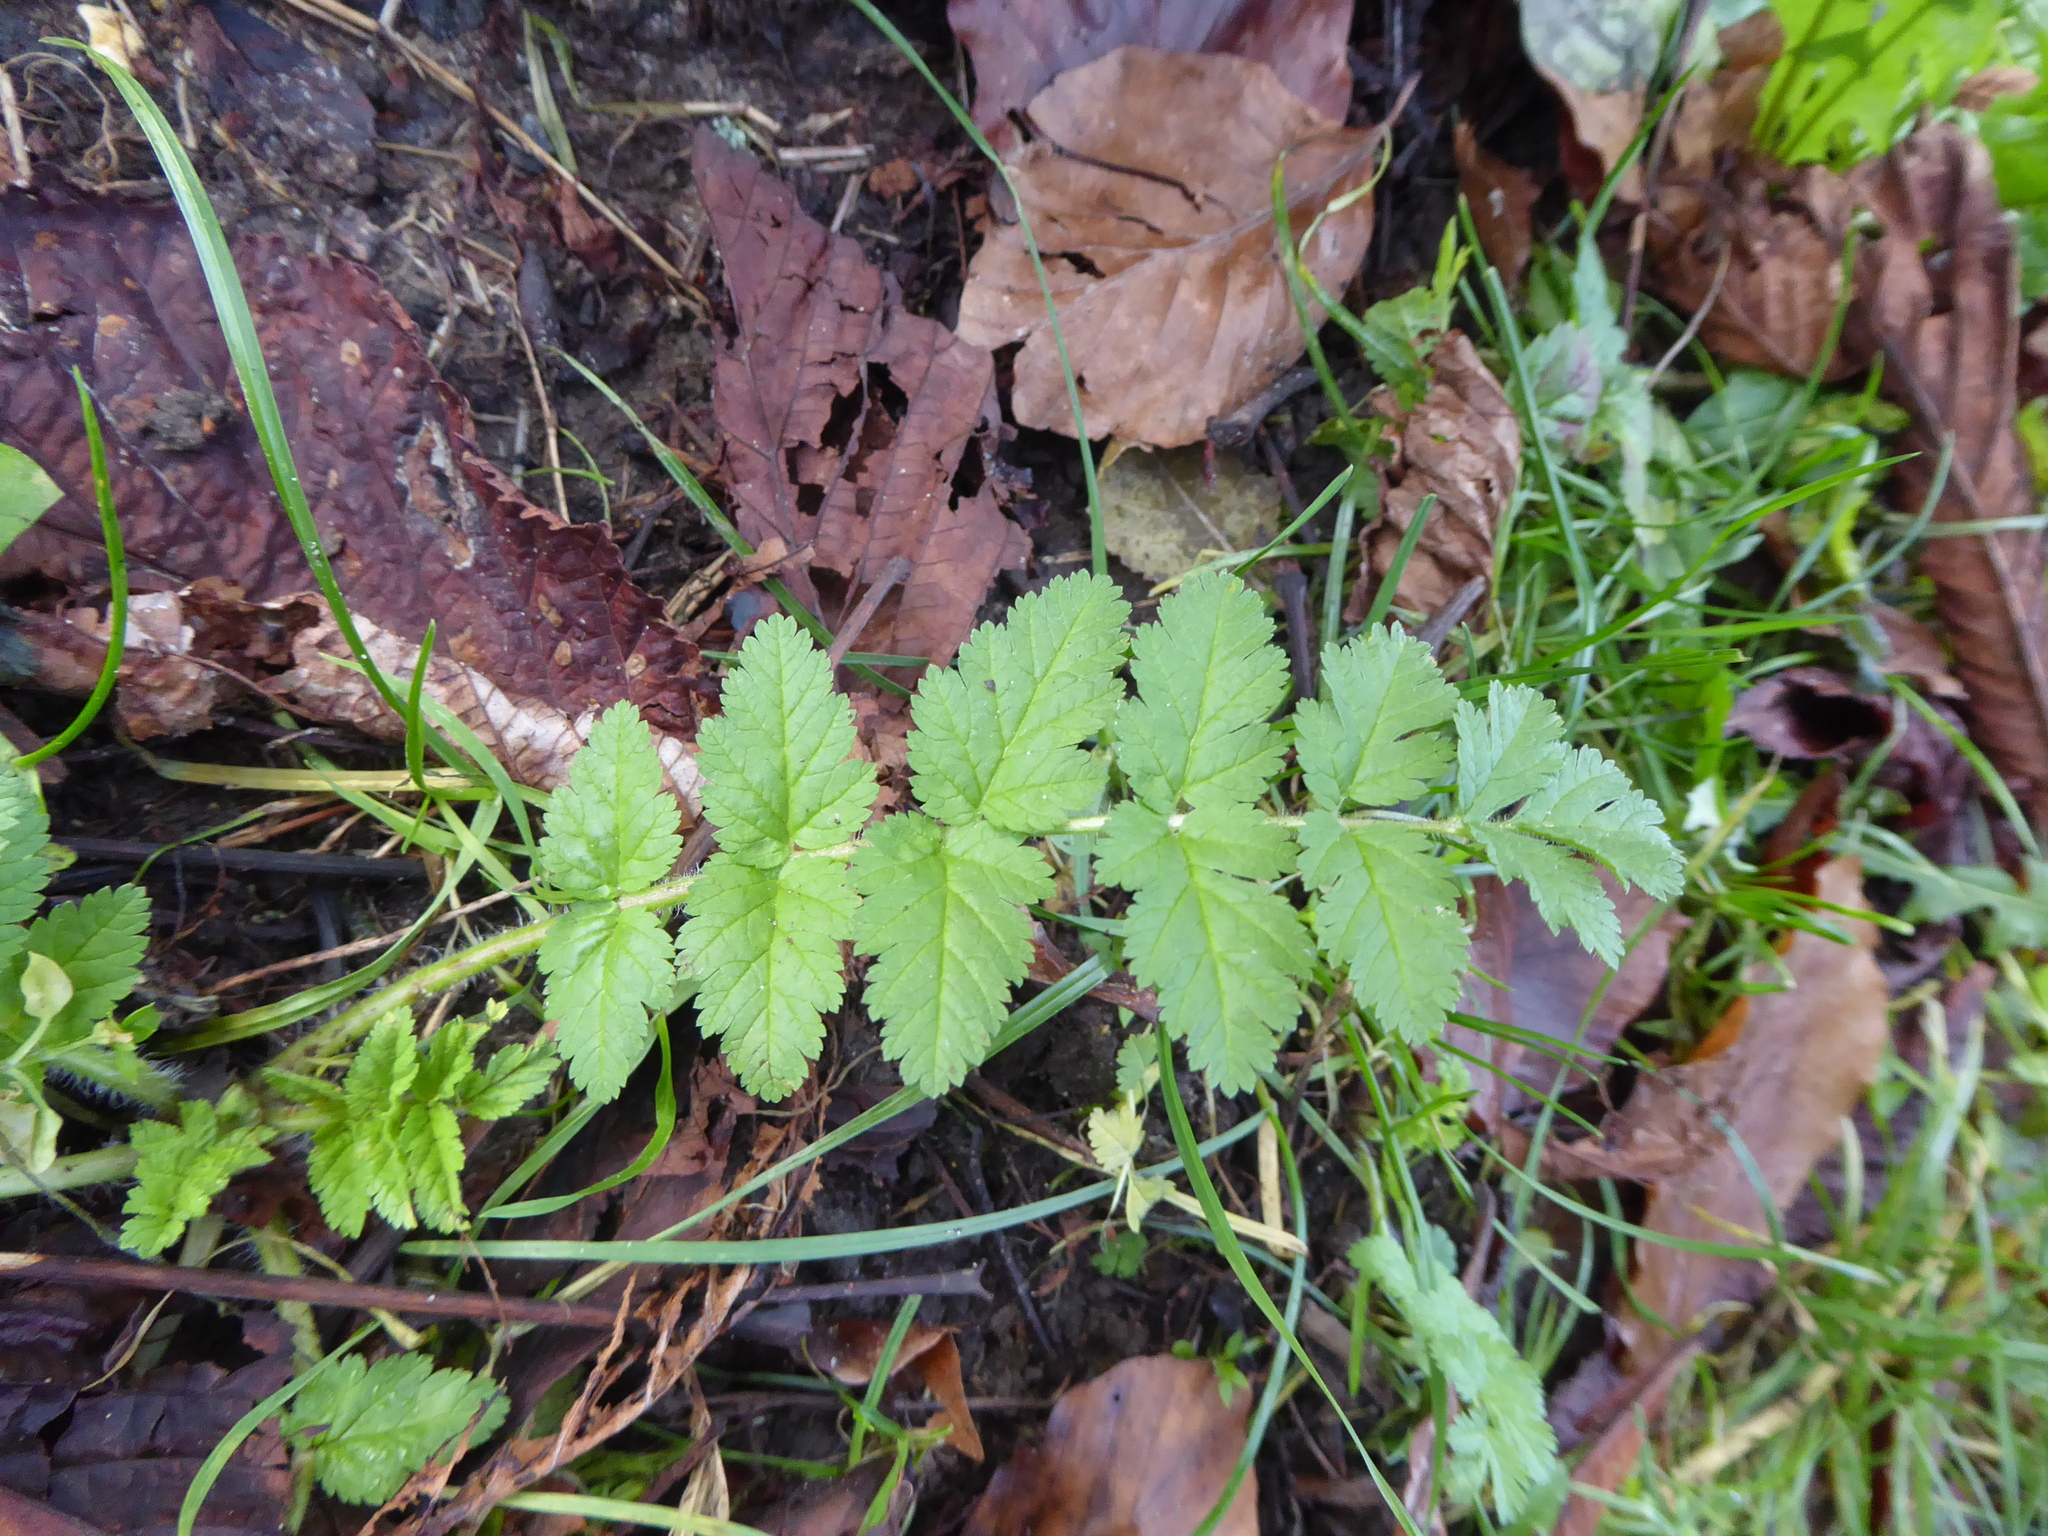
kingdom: Plantae
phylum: Tracheophyta
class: Magnoliopsida
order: Geraniales
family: Geraniaceae
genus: Erodium
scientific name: Erodium moschatum
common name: Musk stork's-bill
